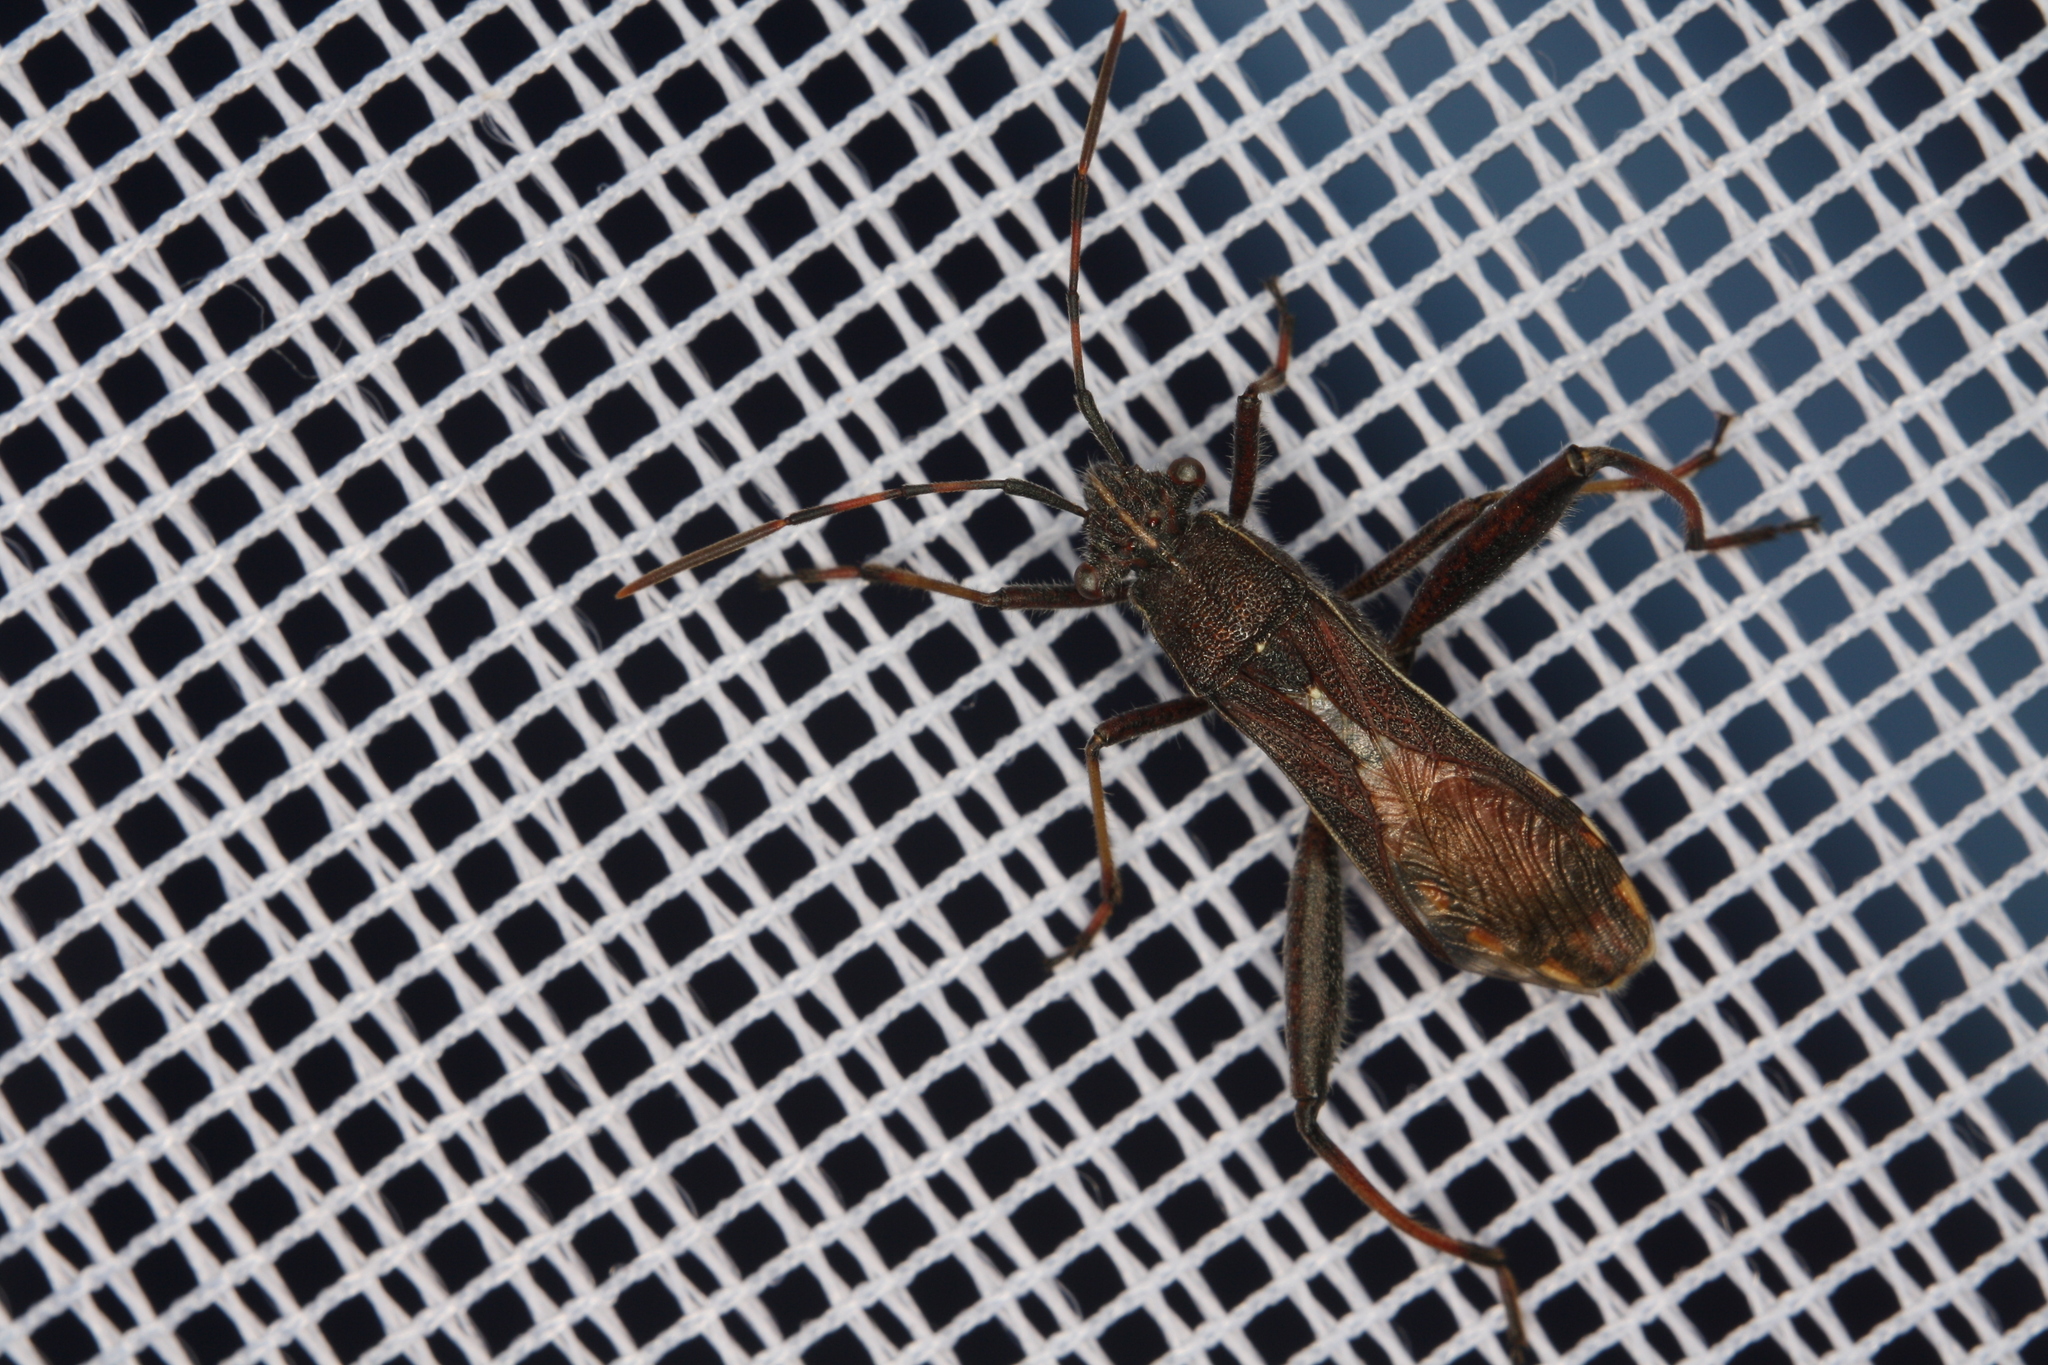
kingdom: Animalia
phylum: Arthropoda
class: Insecta
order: Hemiptera
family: Alydidae
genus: Camptopus
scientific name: Camptopus lateralis
